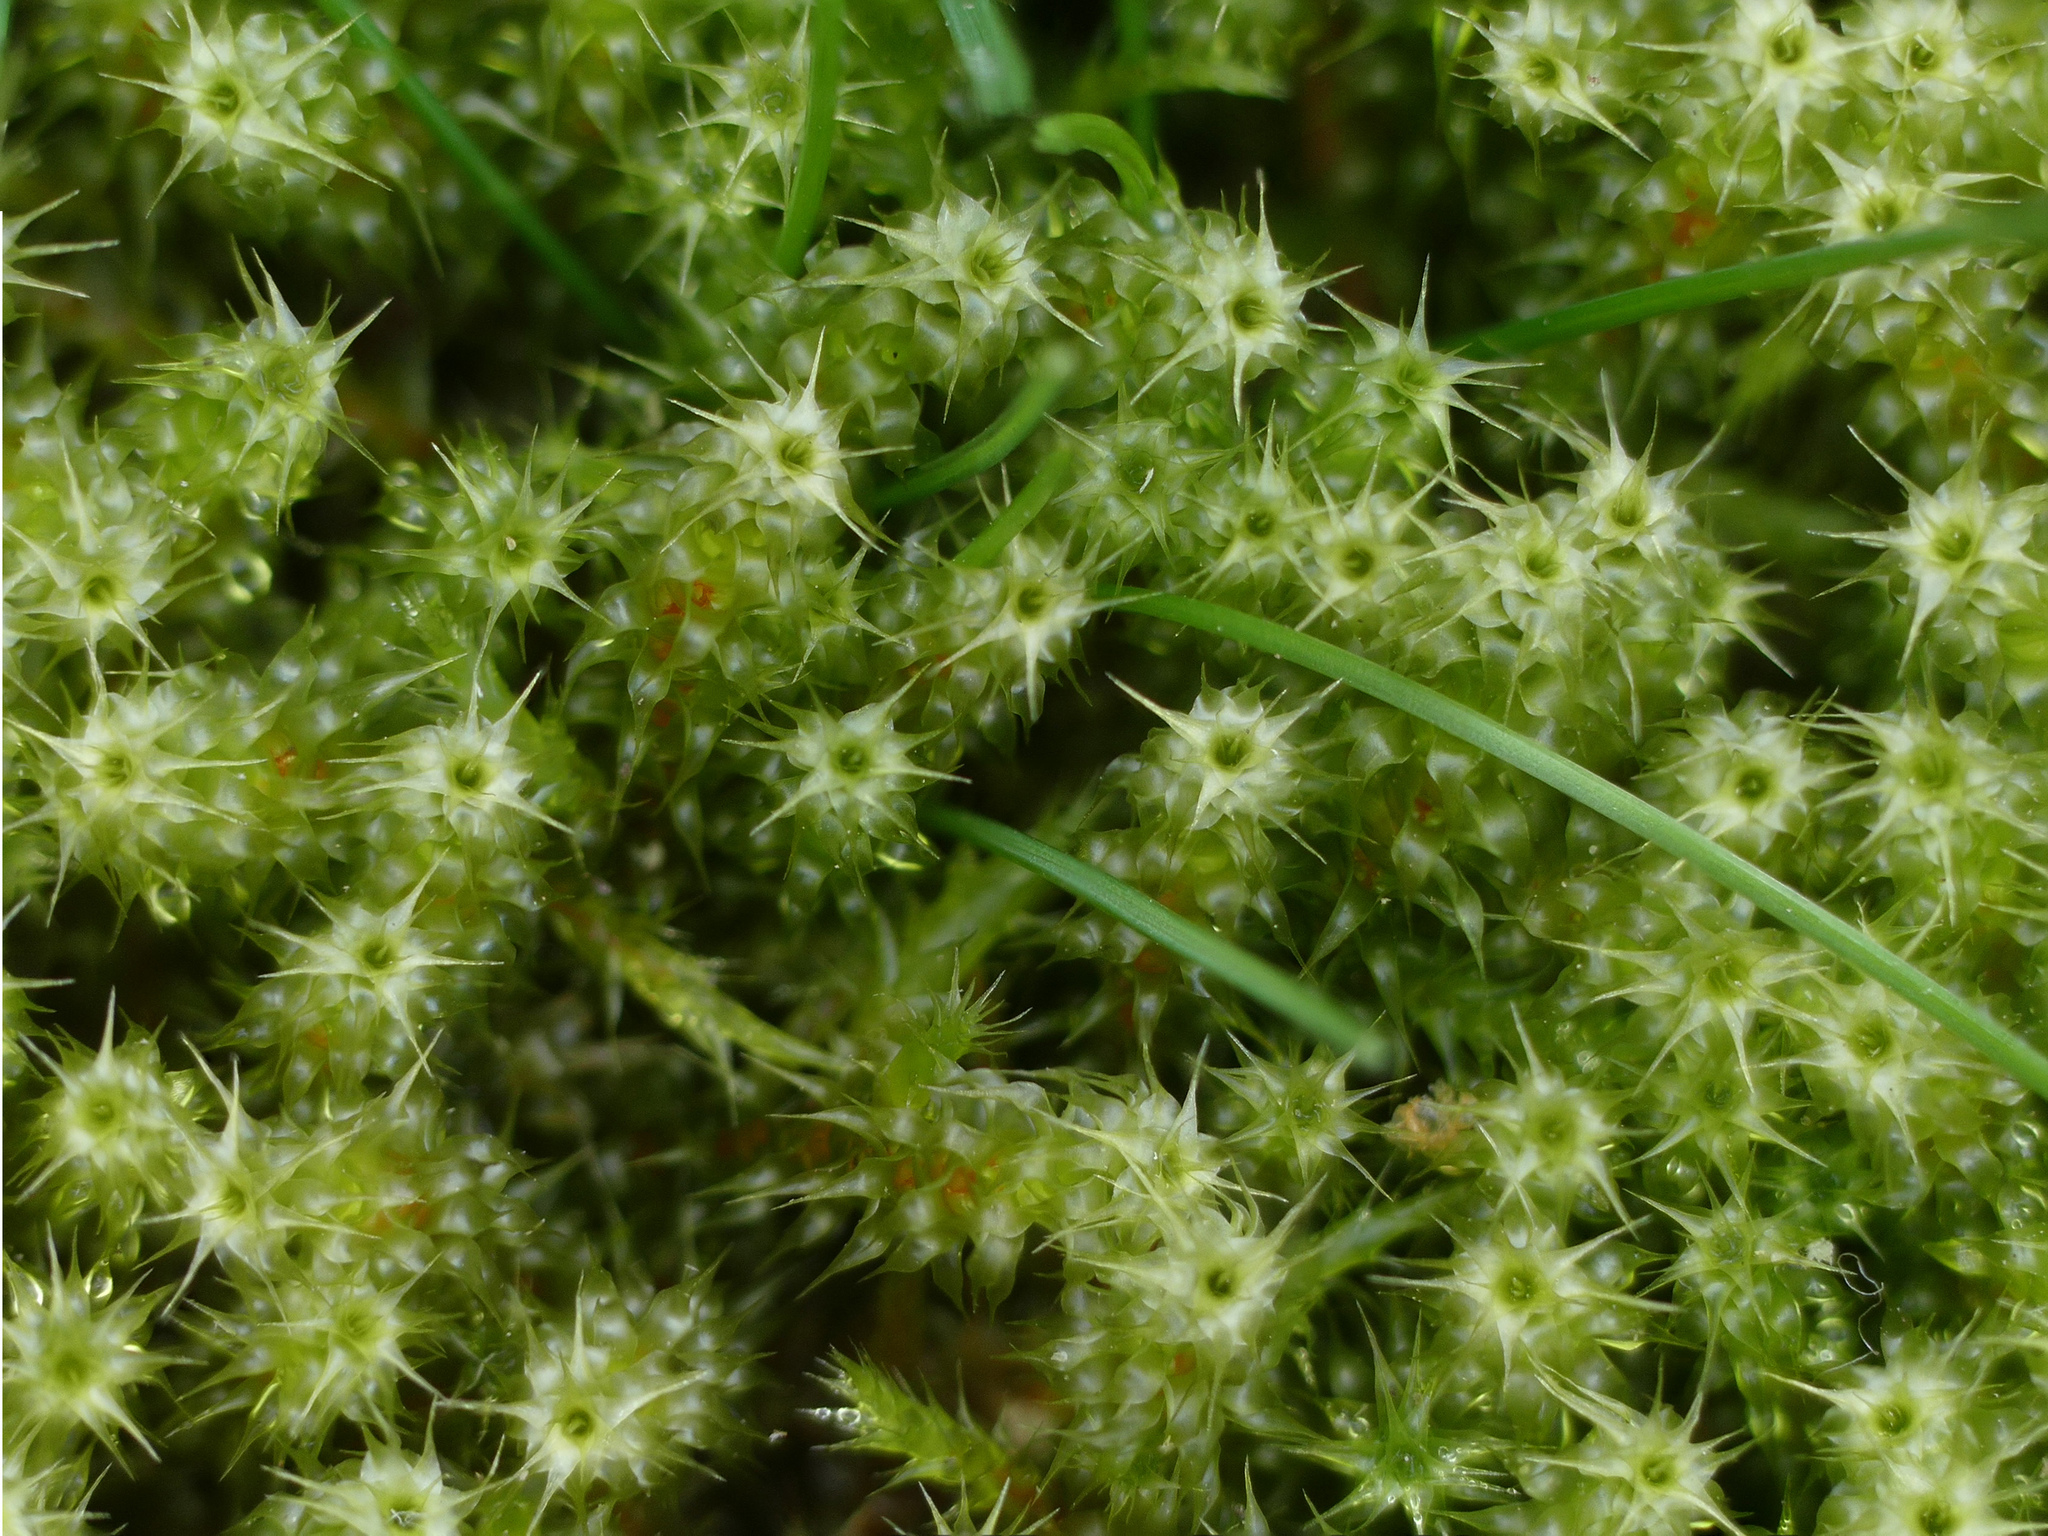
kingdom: Plantae
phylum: Bryophyta
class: Bryopsida
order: Hypnales
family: Hylocomiaceae
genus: Rhytidiadelphus
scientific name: Rhytidiadelphus squarrosus
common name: Springy turf-moss
